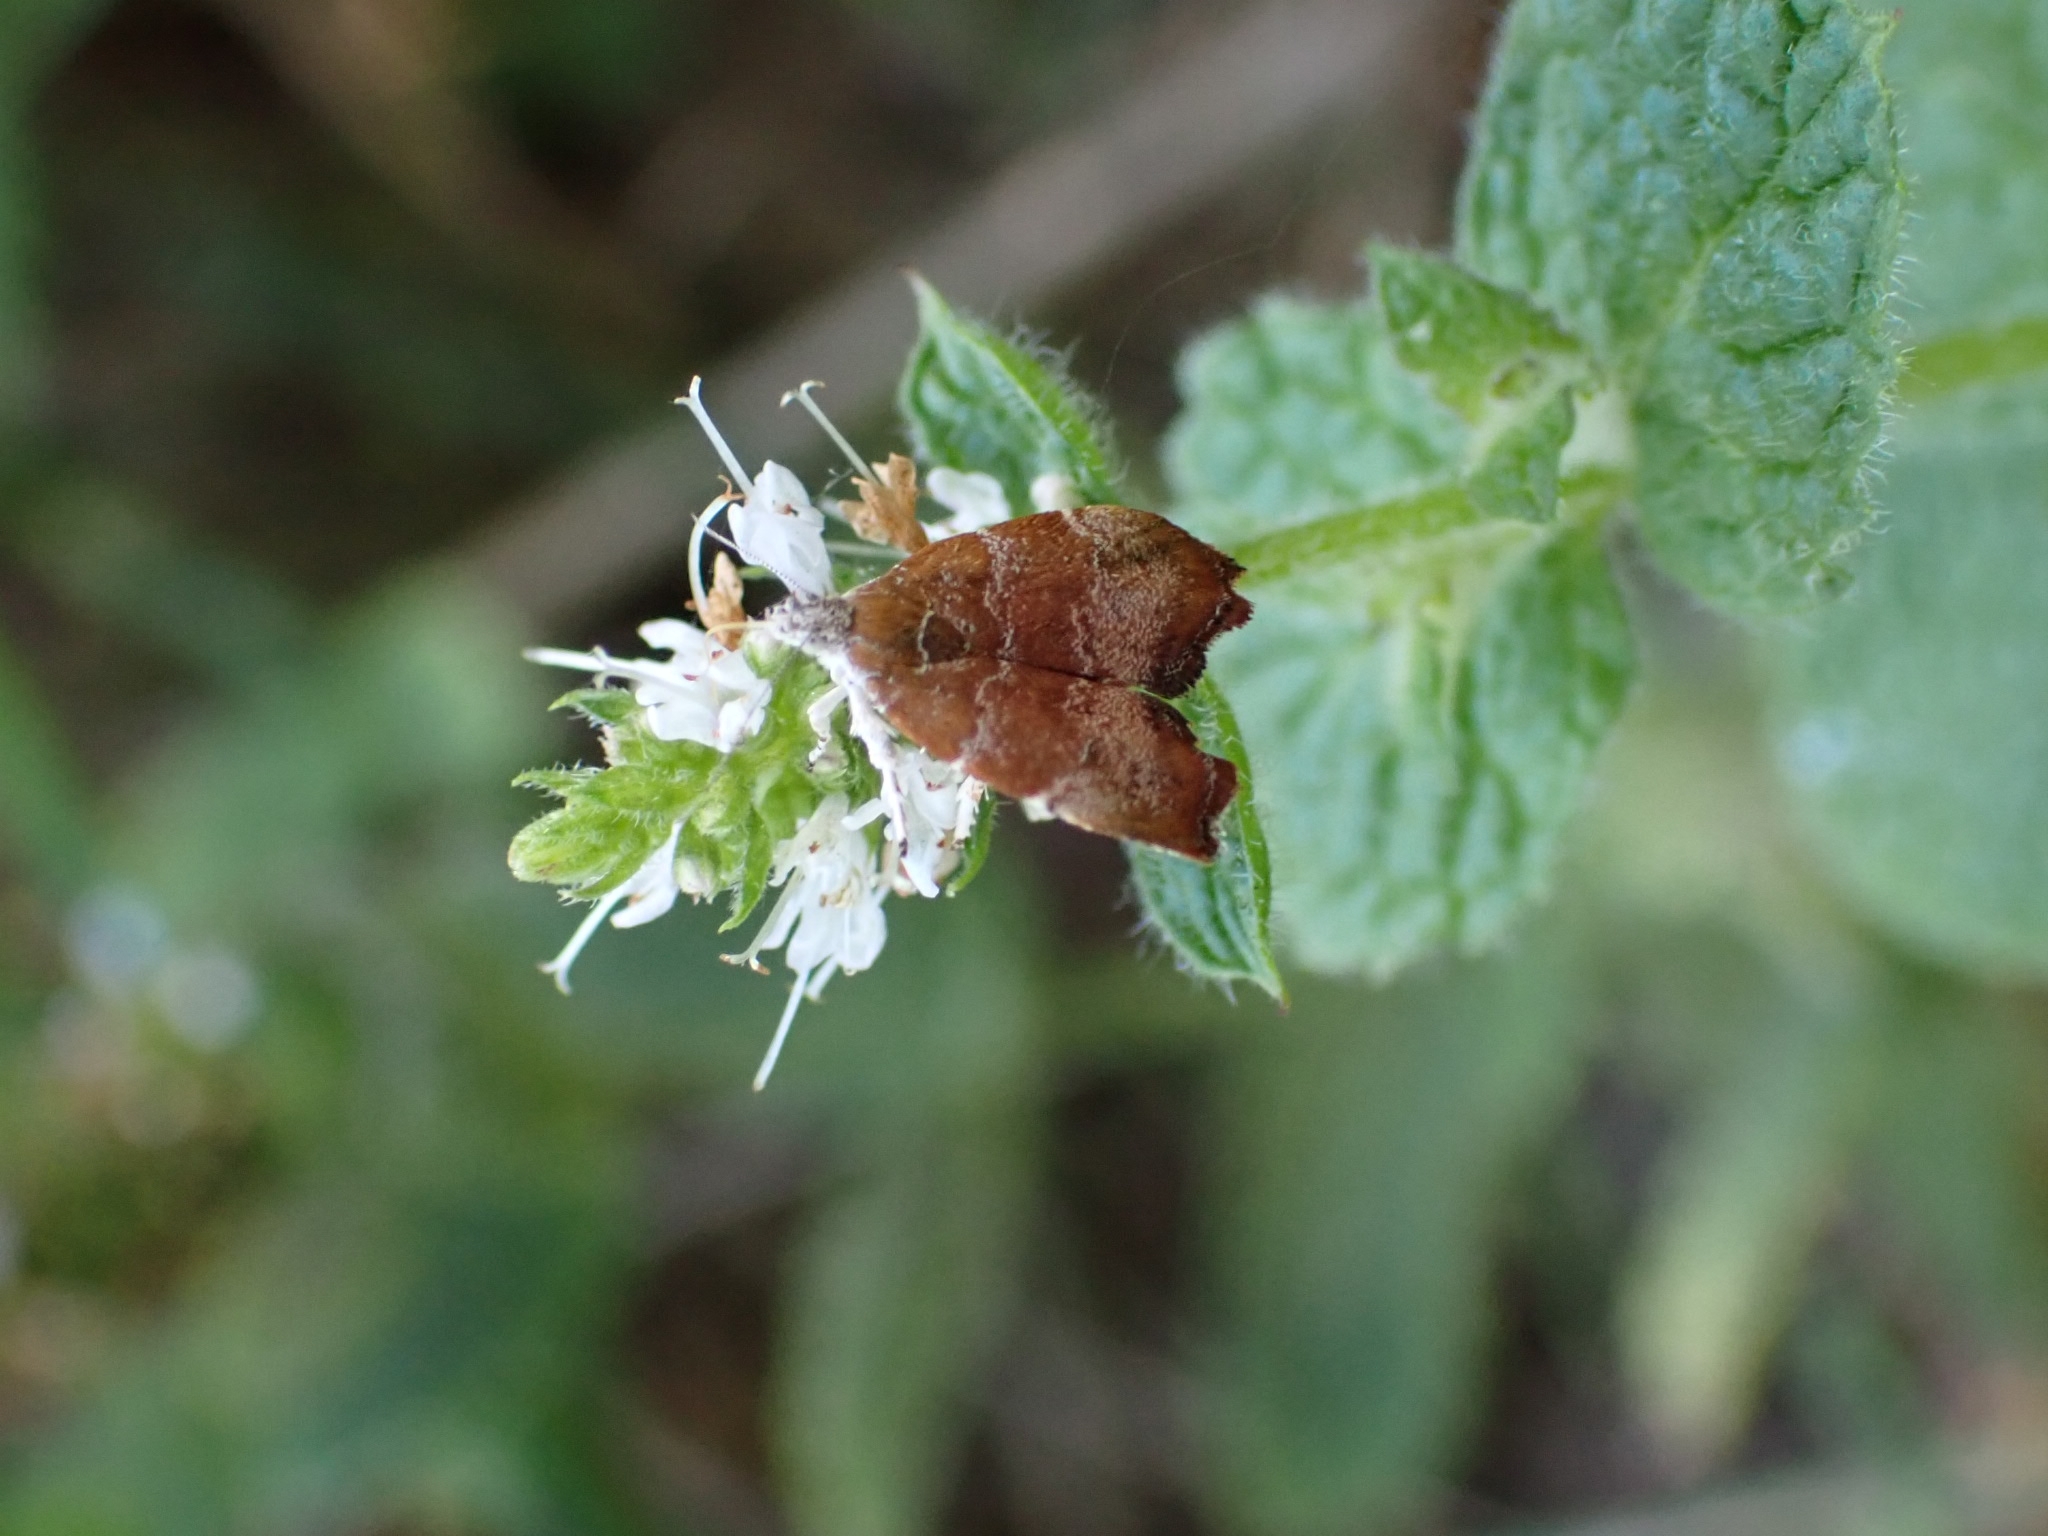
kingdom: Animalia
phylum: Arthropoda
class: Insecta
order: Lepidoptera
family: Choreutidae
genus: Anthophila
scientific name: Anthophila nemorana
